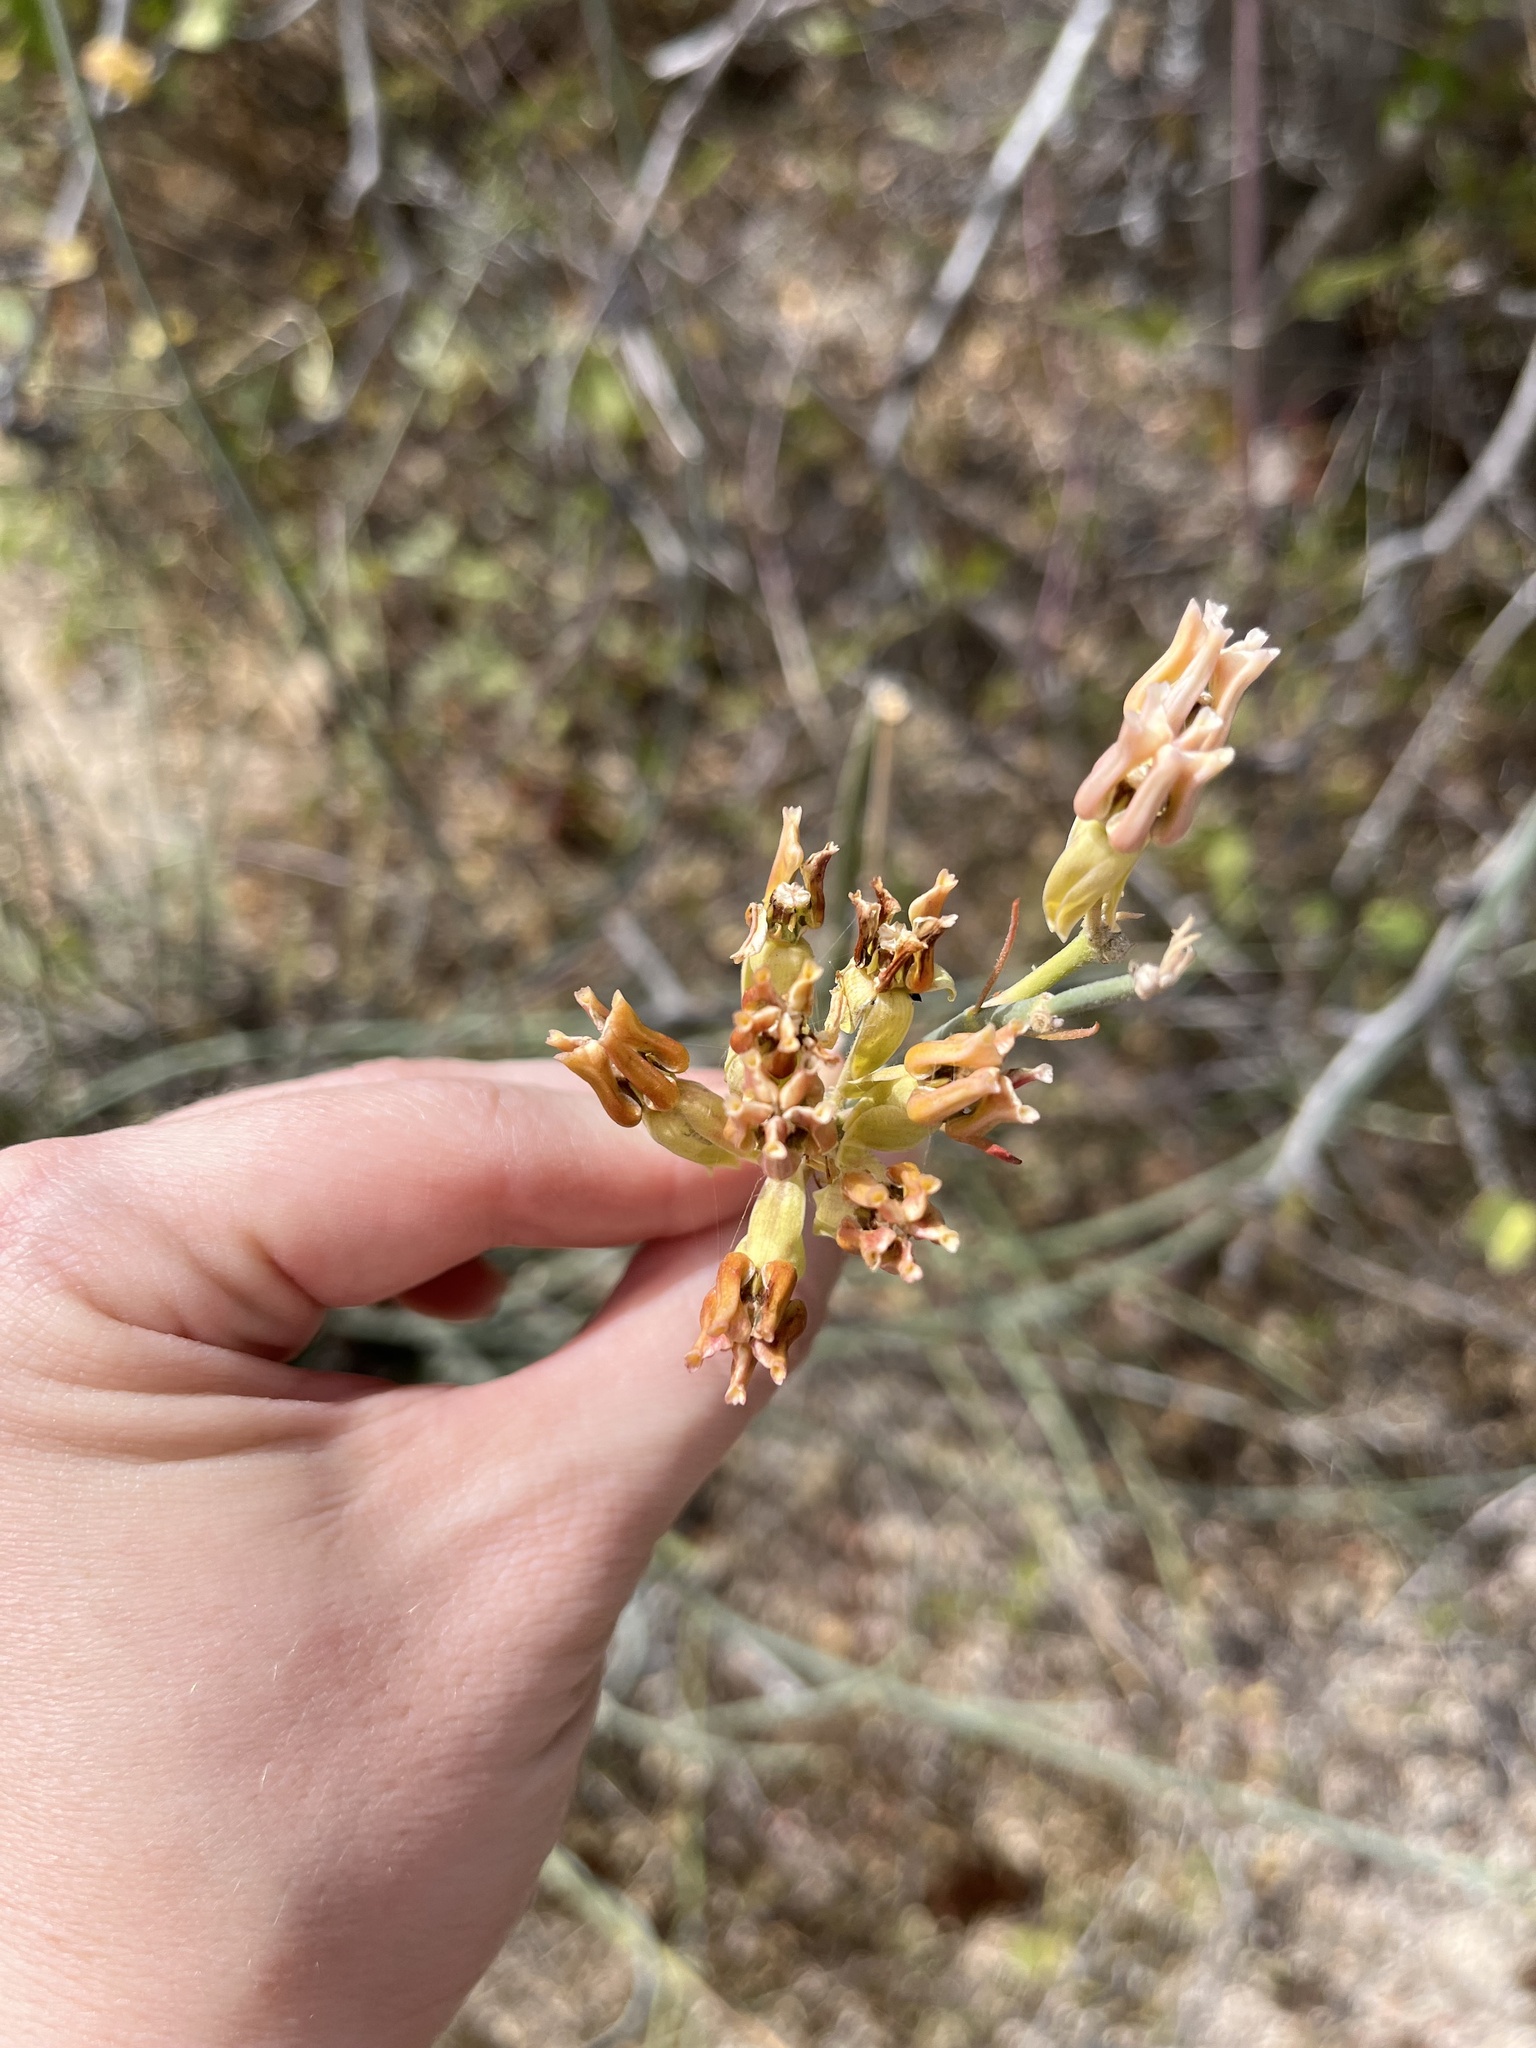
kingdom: Plantae
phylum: Tracheophyta
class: Magnoliopsida
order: Gentianales
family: Apocynaceae
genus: Asclepias
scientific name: Asclepias subulata
